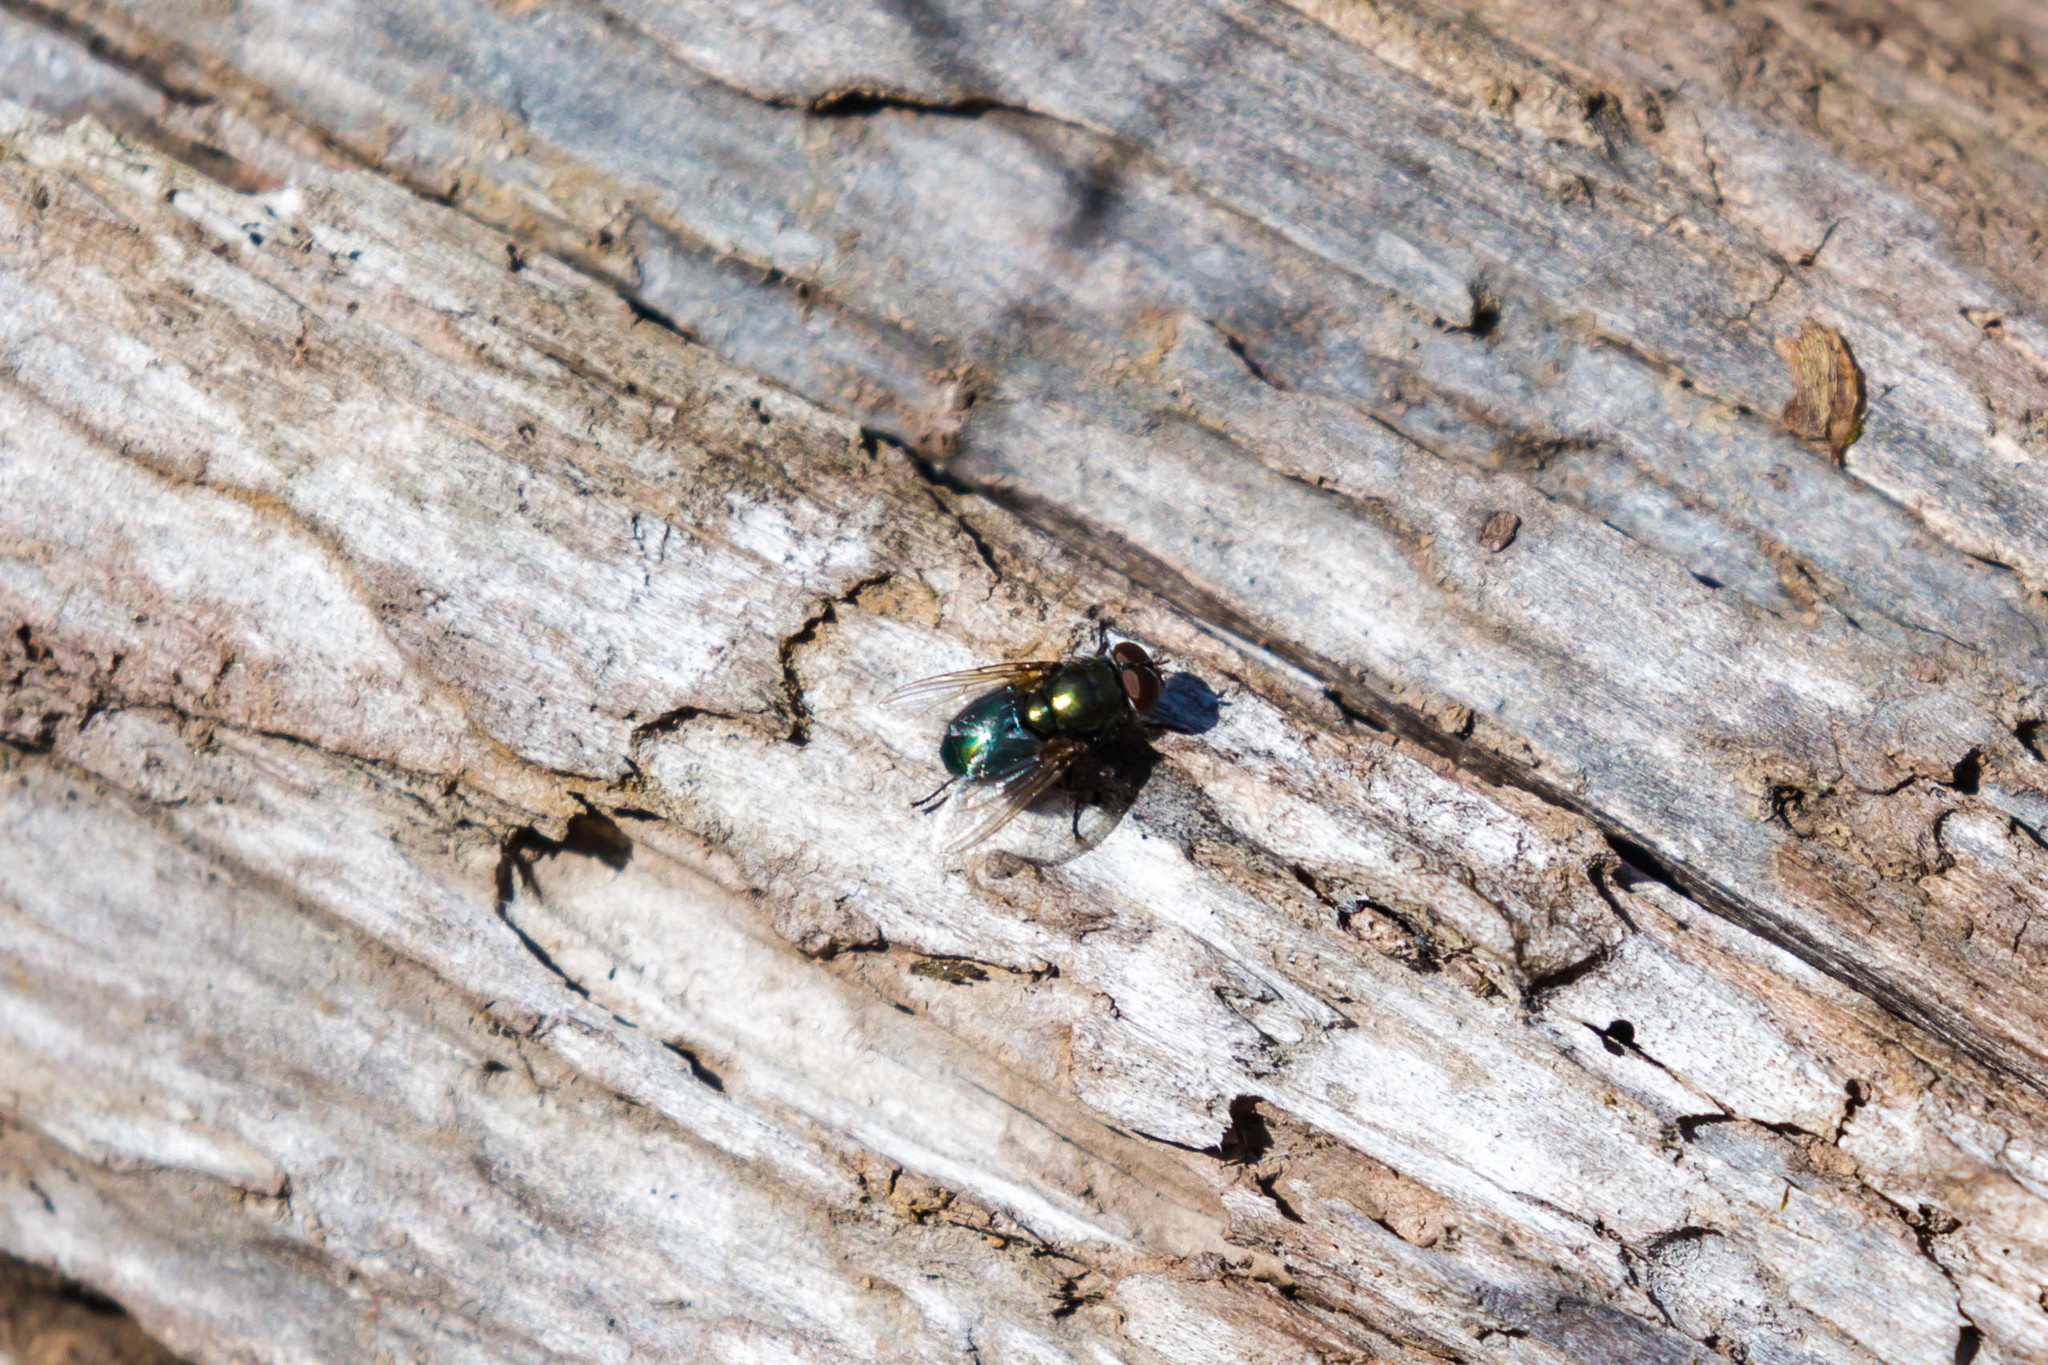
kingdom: Animalia
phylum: Arthropoda
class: Insecta
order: Diptera
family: Calliphoridae
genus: Phormia
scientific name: Phormia regina
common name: Black blow fly
